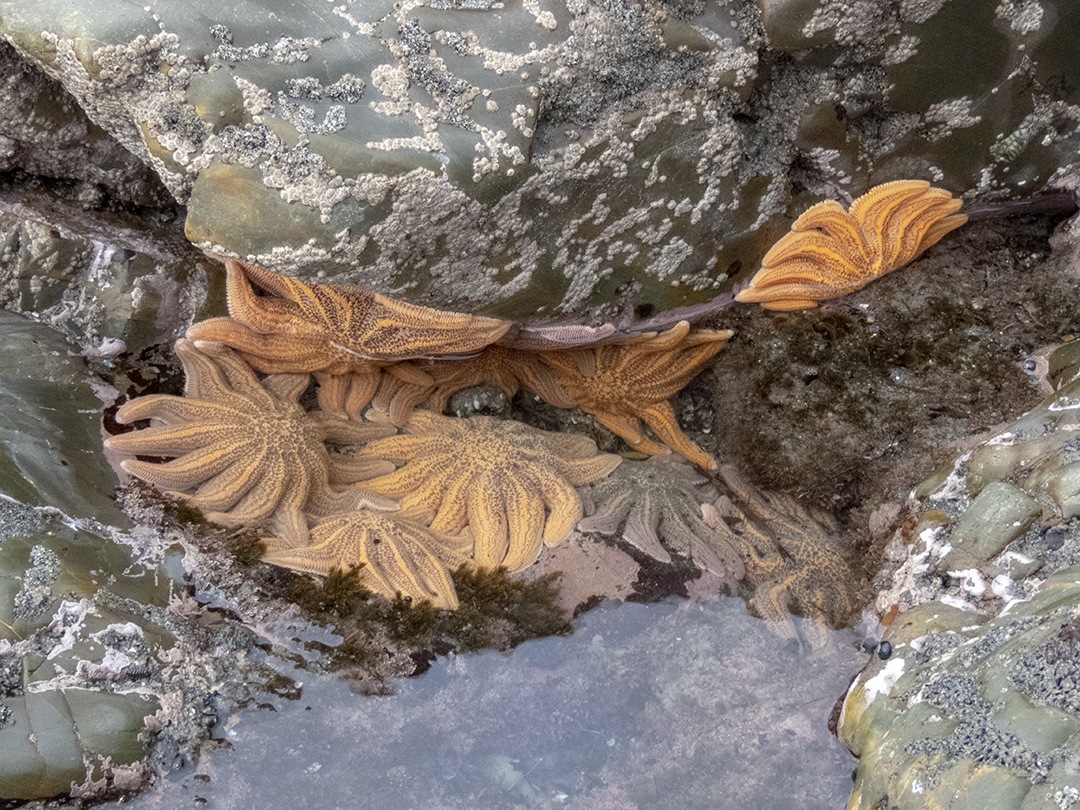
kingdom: Animalia
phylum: Echinodermata
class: Asteroidea
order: Forcipulatida
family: Stichasteridae
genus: Stichaster
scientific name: Stichaster australis
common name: Reef starfish
